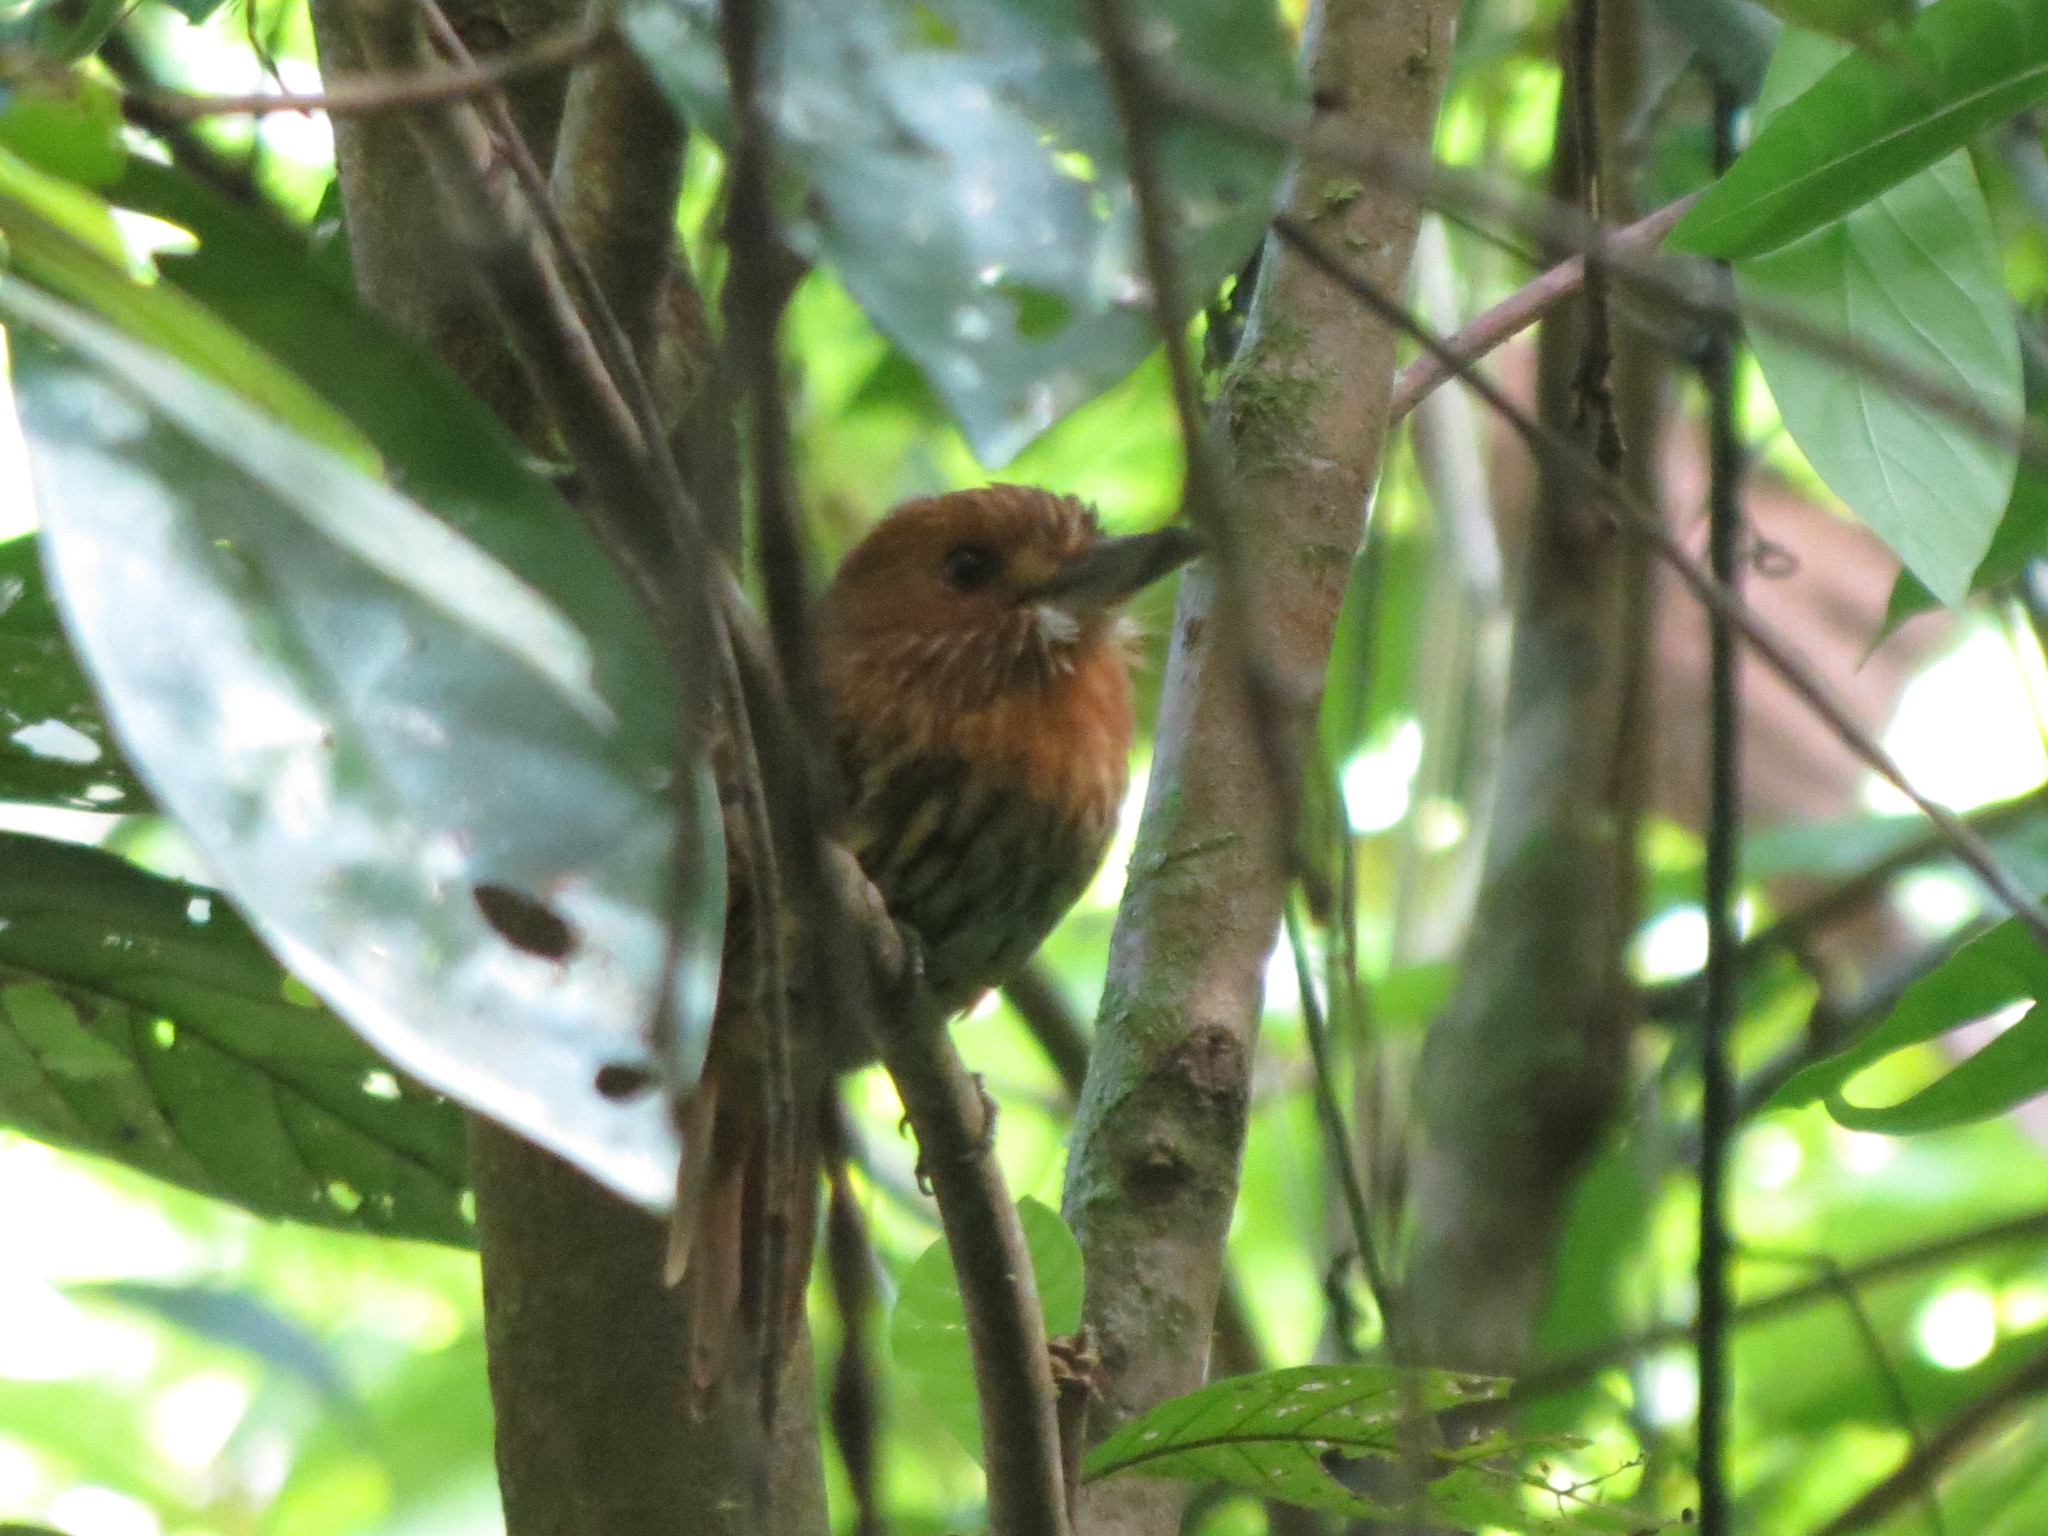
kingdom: Animalia
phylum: Chordata
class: Aves
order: Piciformes
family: Bucconidae
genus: Malacoptila
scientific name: Malacoptila panamensis
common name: White-whiskered puffbird
